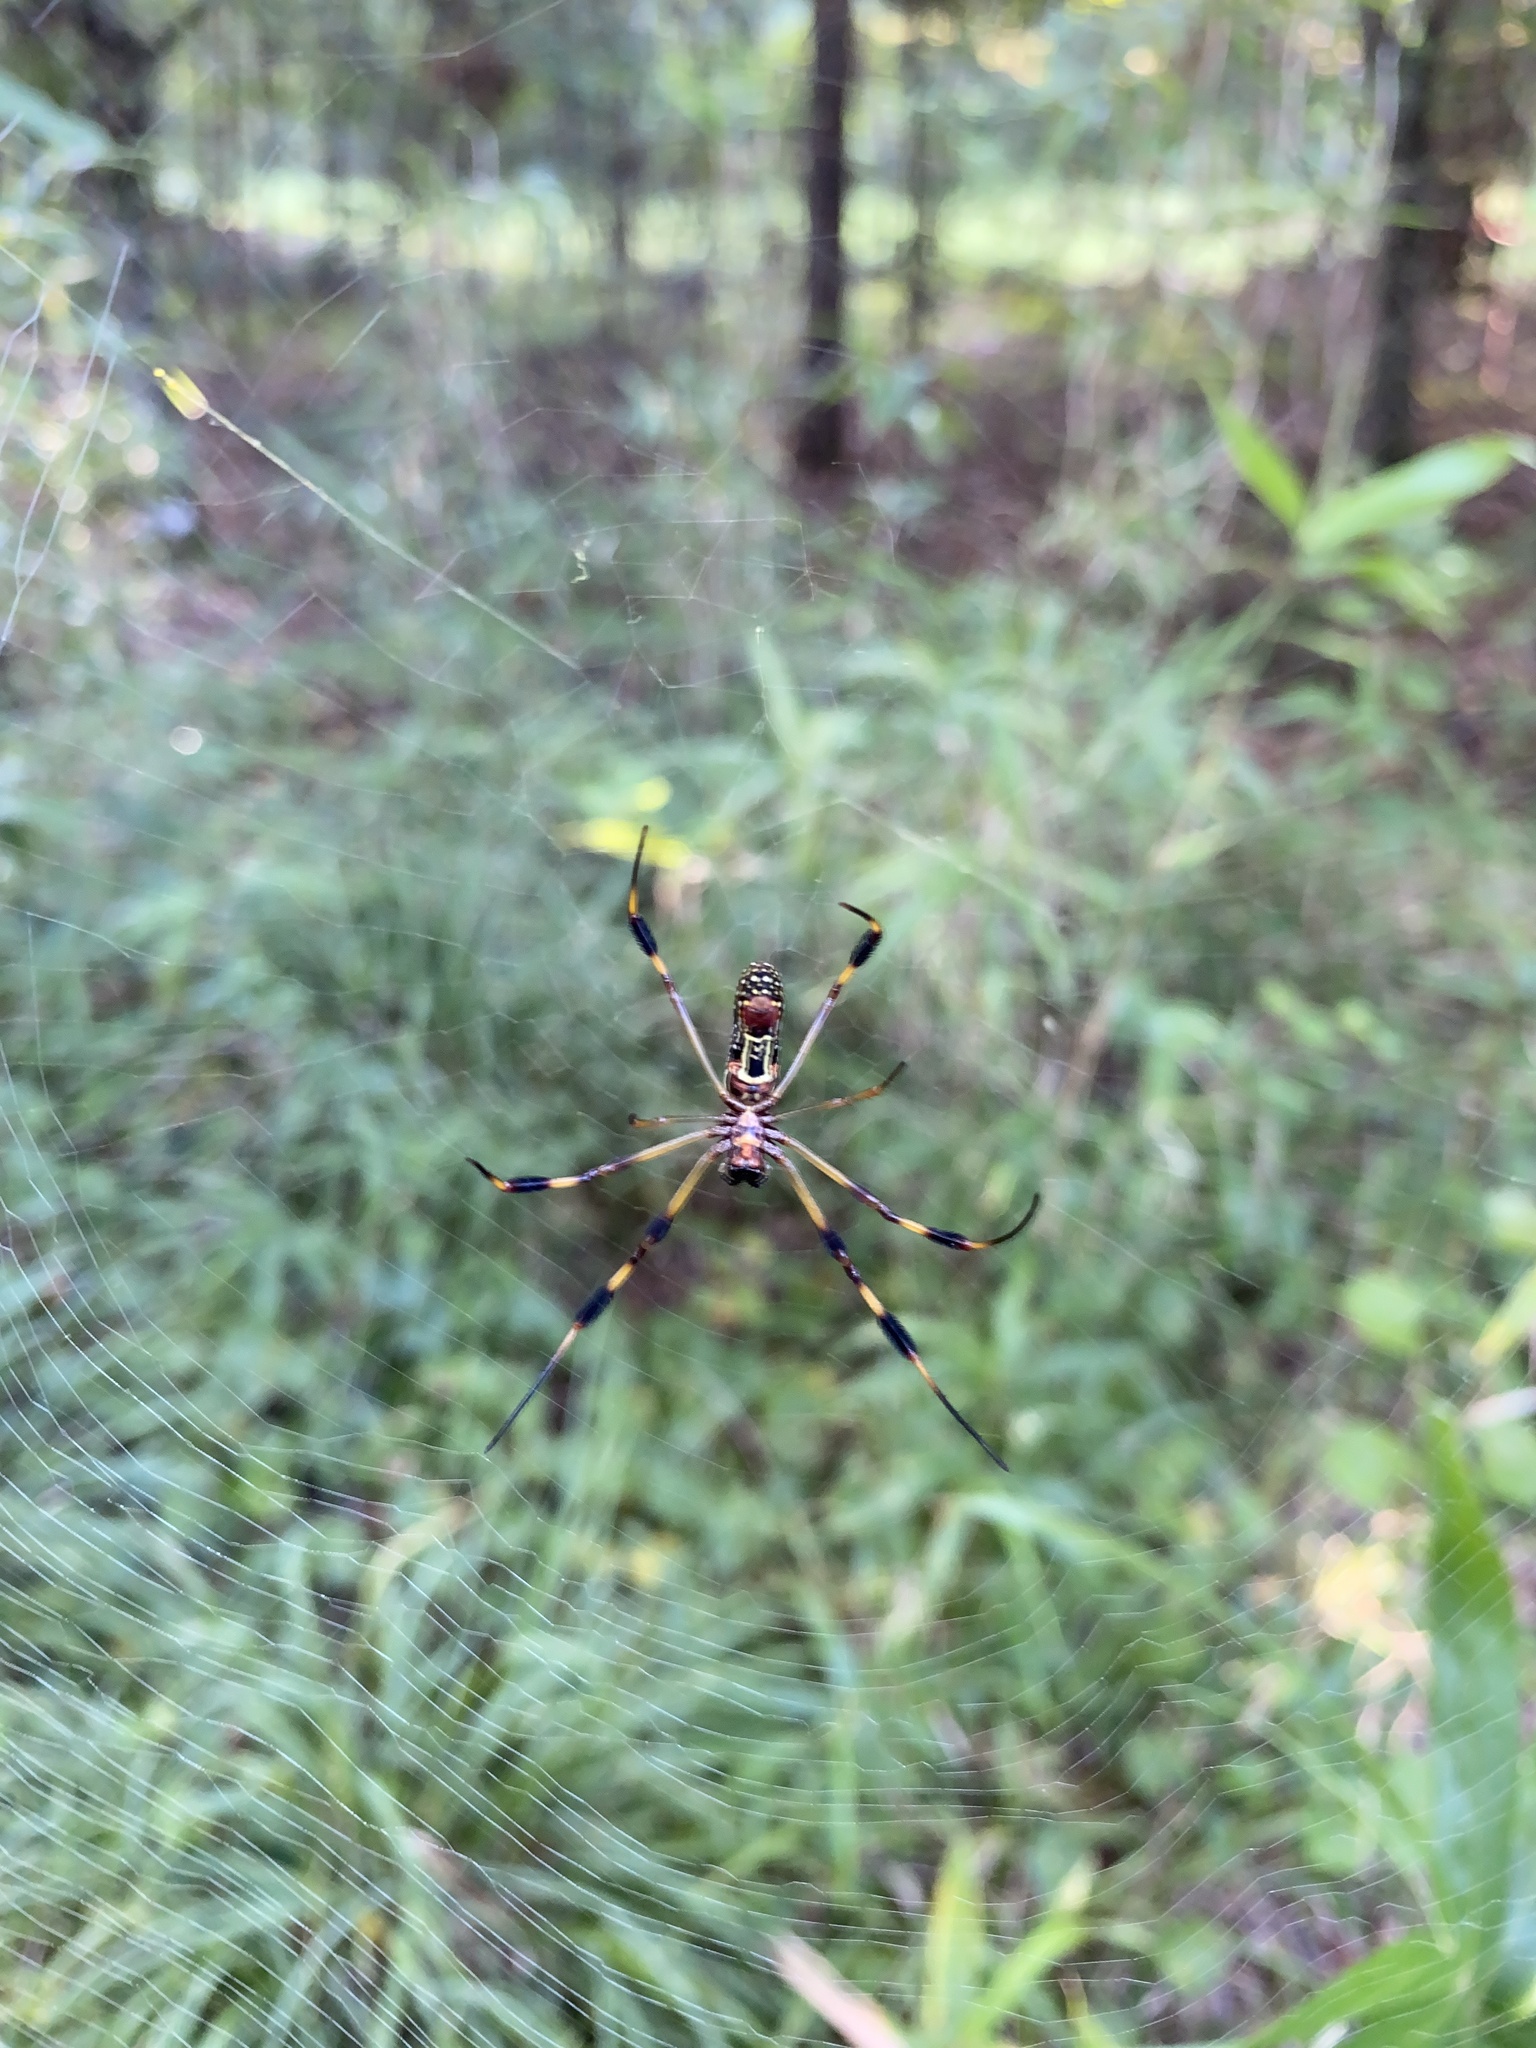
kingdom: Animalia
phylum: Arthropoda
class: Arachnida
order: Araneae
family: Araneidae
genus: Trichonephila
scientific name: Trichonephila clavipes
